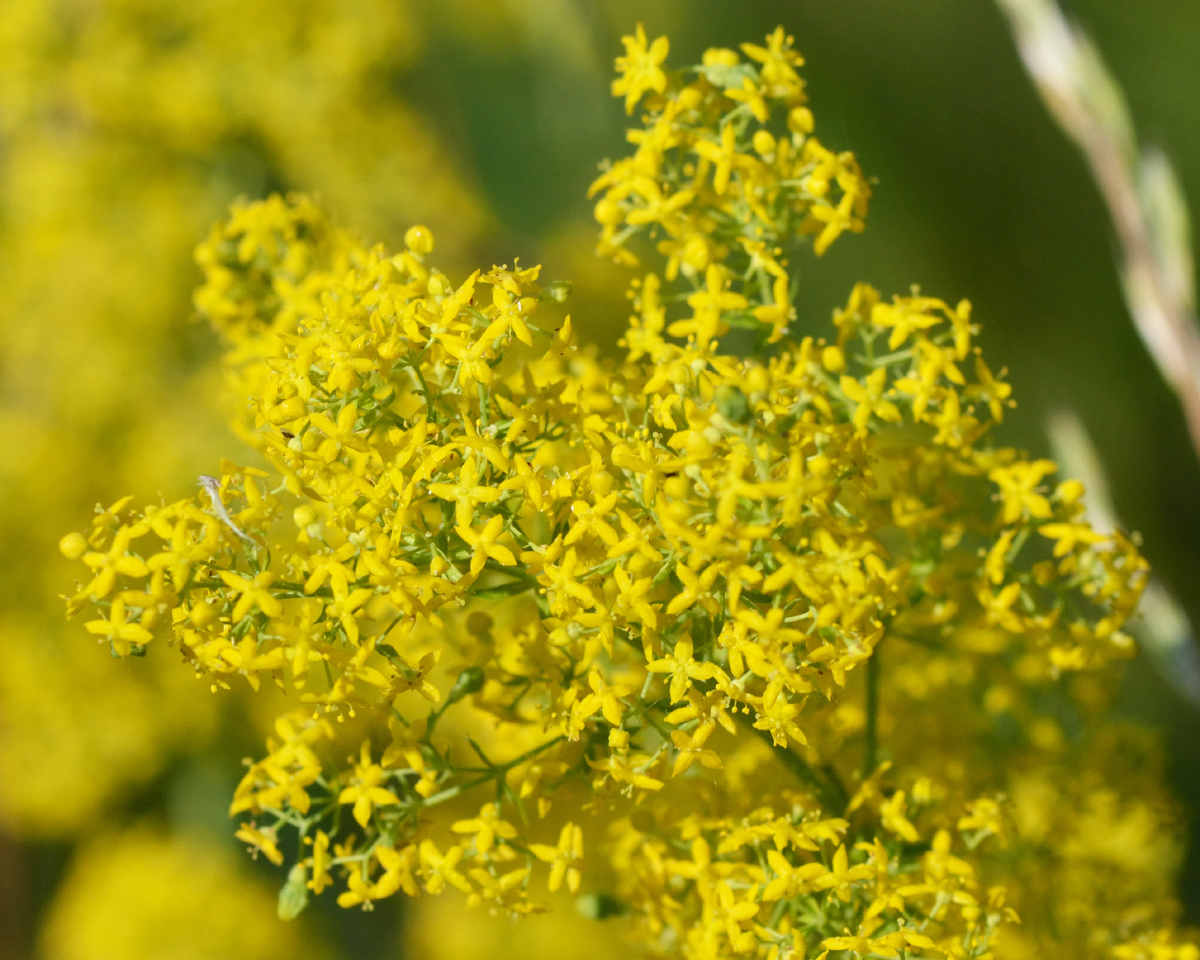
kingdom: Plantae
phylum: Tracheophyta
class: Magnoliopsida
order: Gentianales
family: Rubiaceae
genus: Galium
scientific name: Galium verum
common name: Lady's bedstraw
